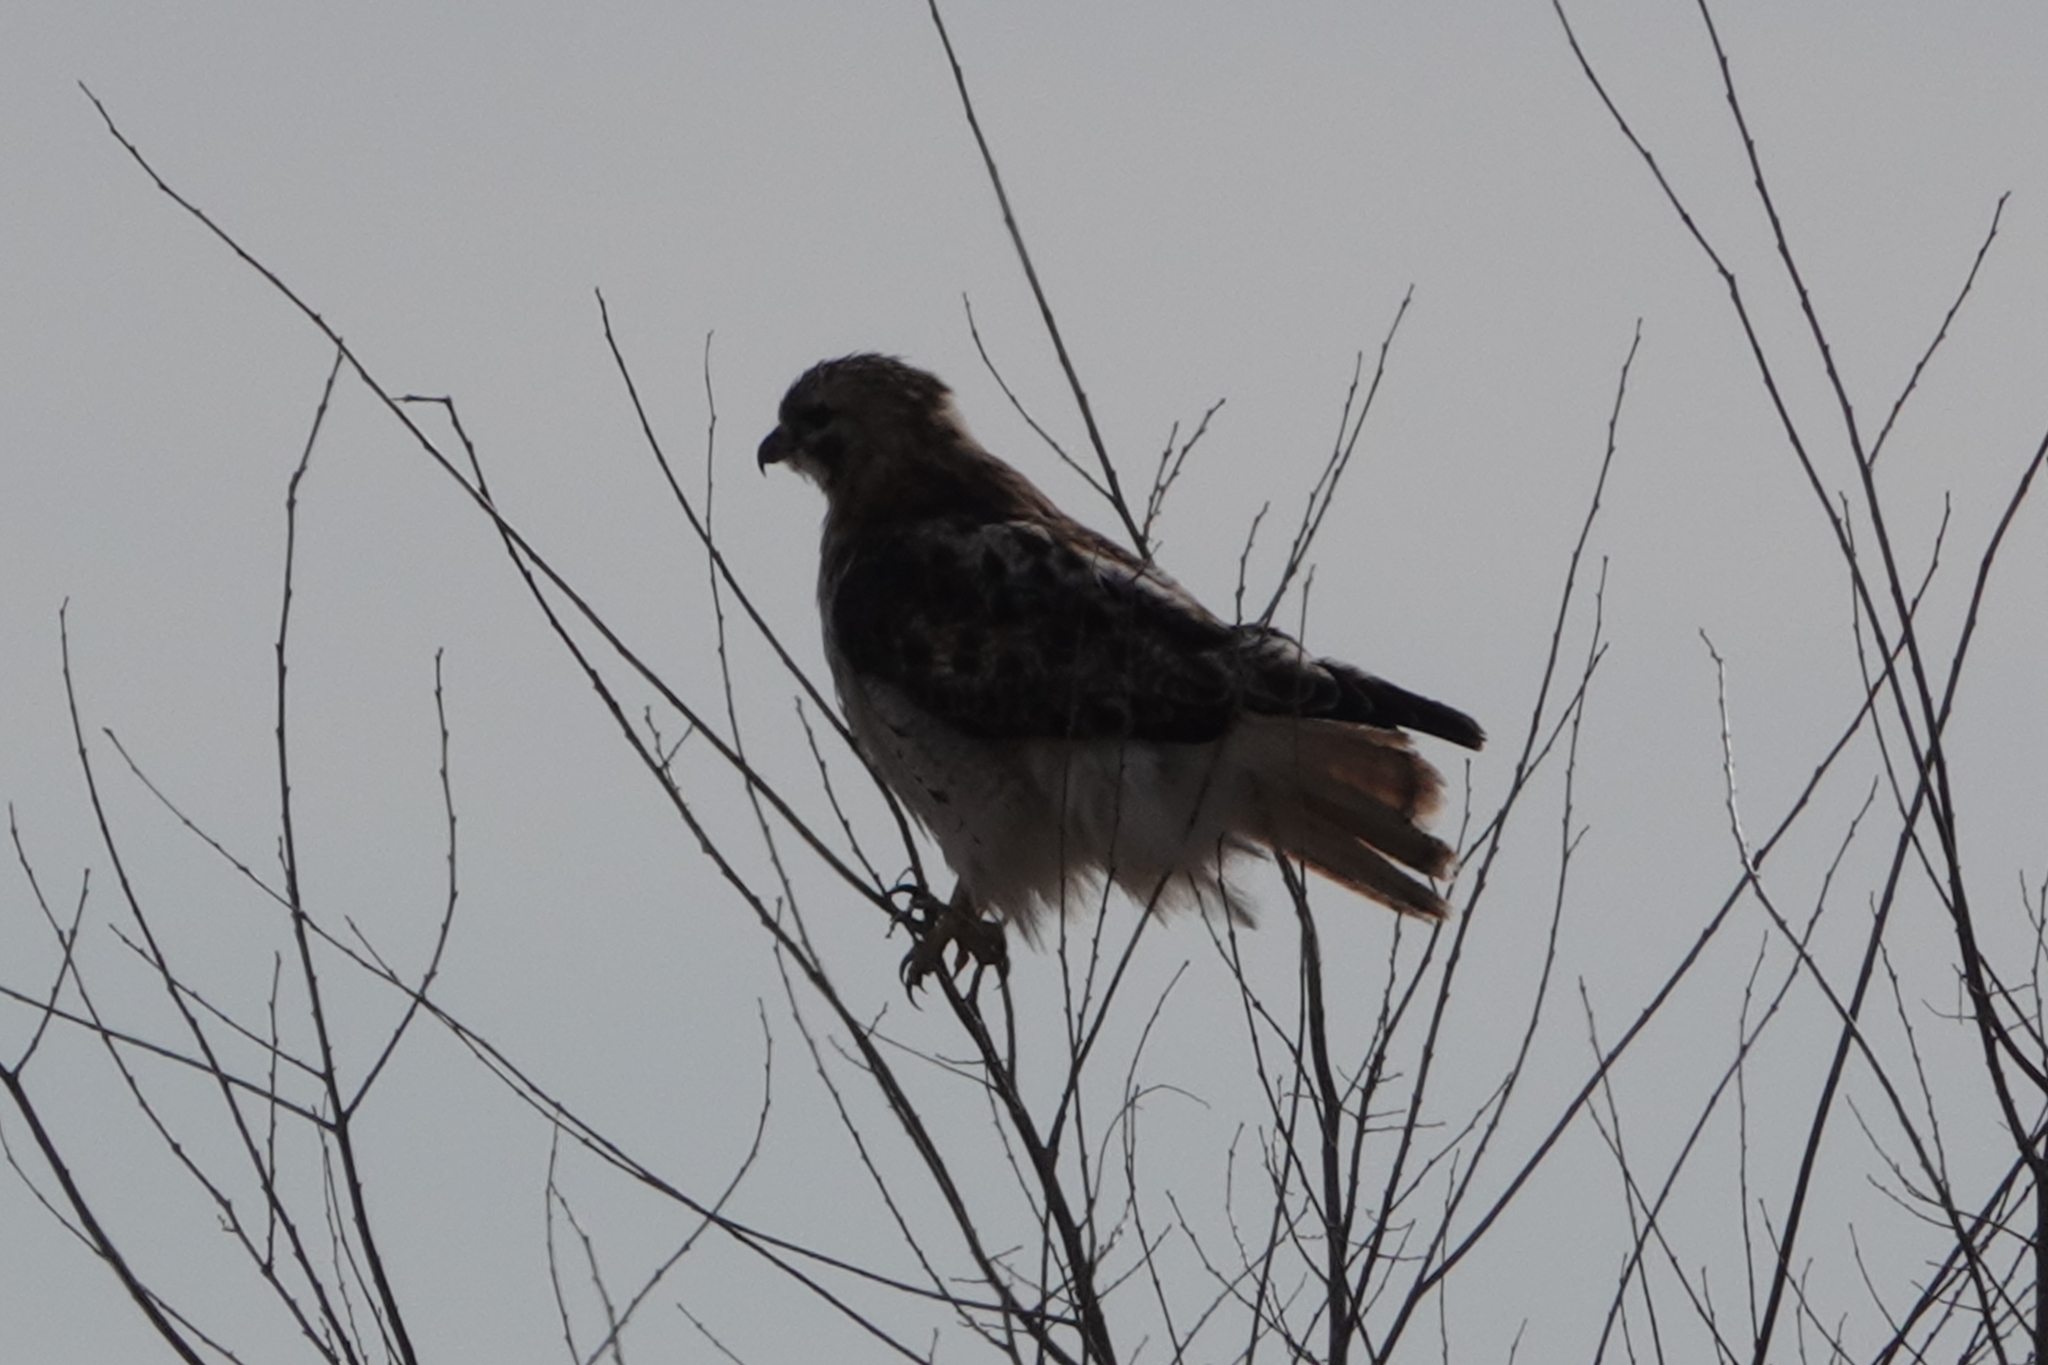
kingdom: Animalia
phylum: Chordata
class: Aves
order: Accipitriformes
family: Accipitridae
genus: Buteo
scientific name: Buteo jamaicensis
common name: Red-tailed hawk
